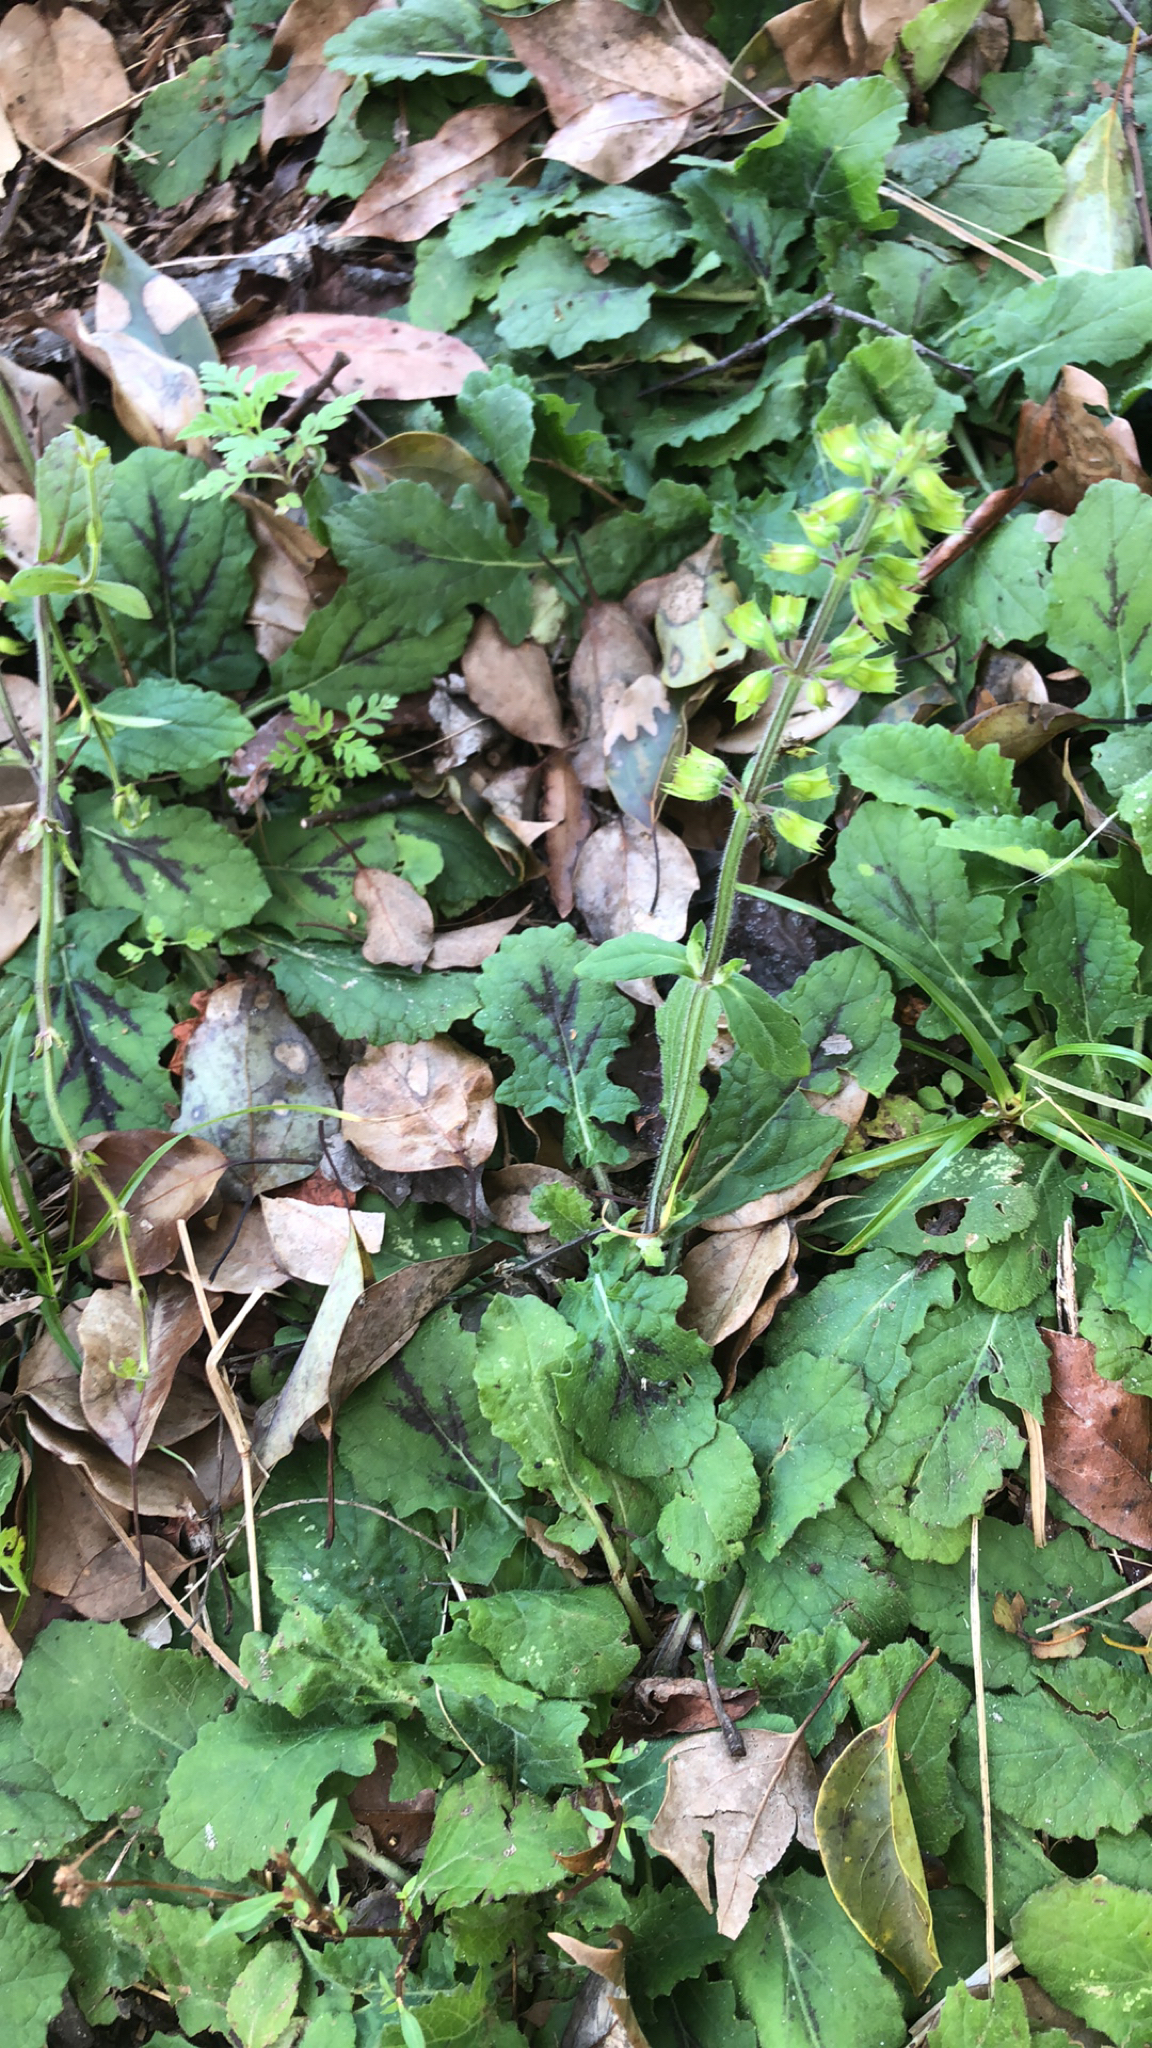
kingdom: Plantae
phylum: Tracheophyta
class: Magnoliopsida
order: Lamiales
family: Lamiaceae
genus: Salvia
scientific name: Salvia lyrata
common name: Cancerweed
